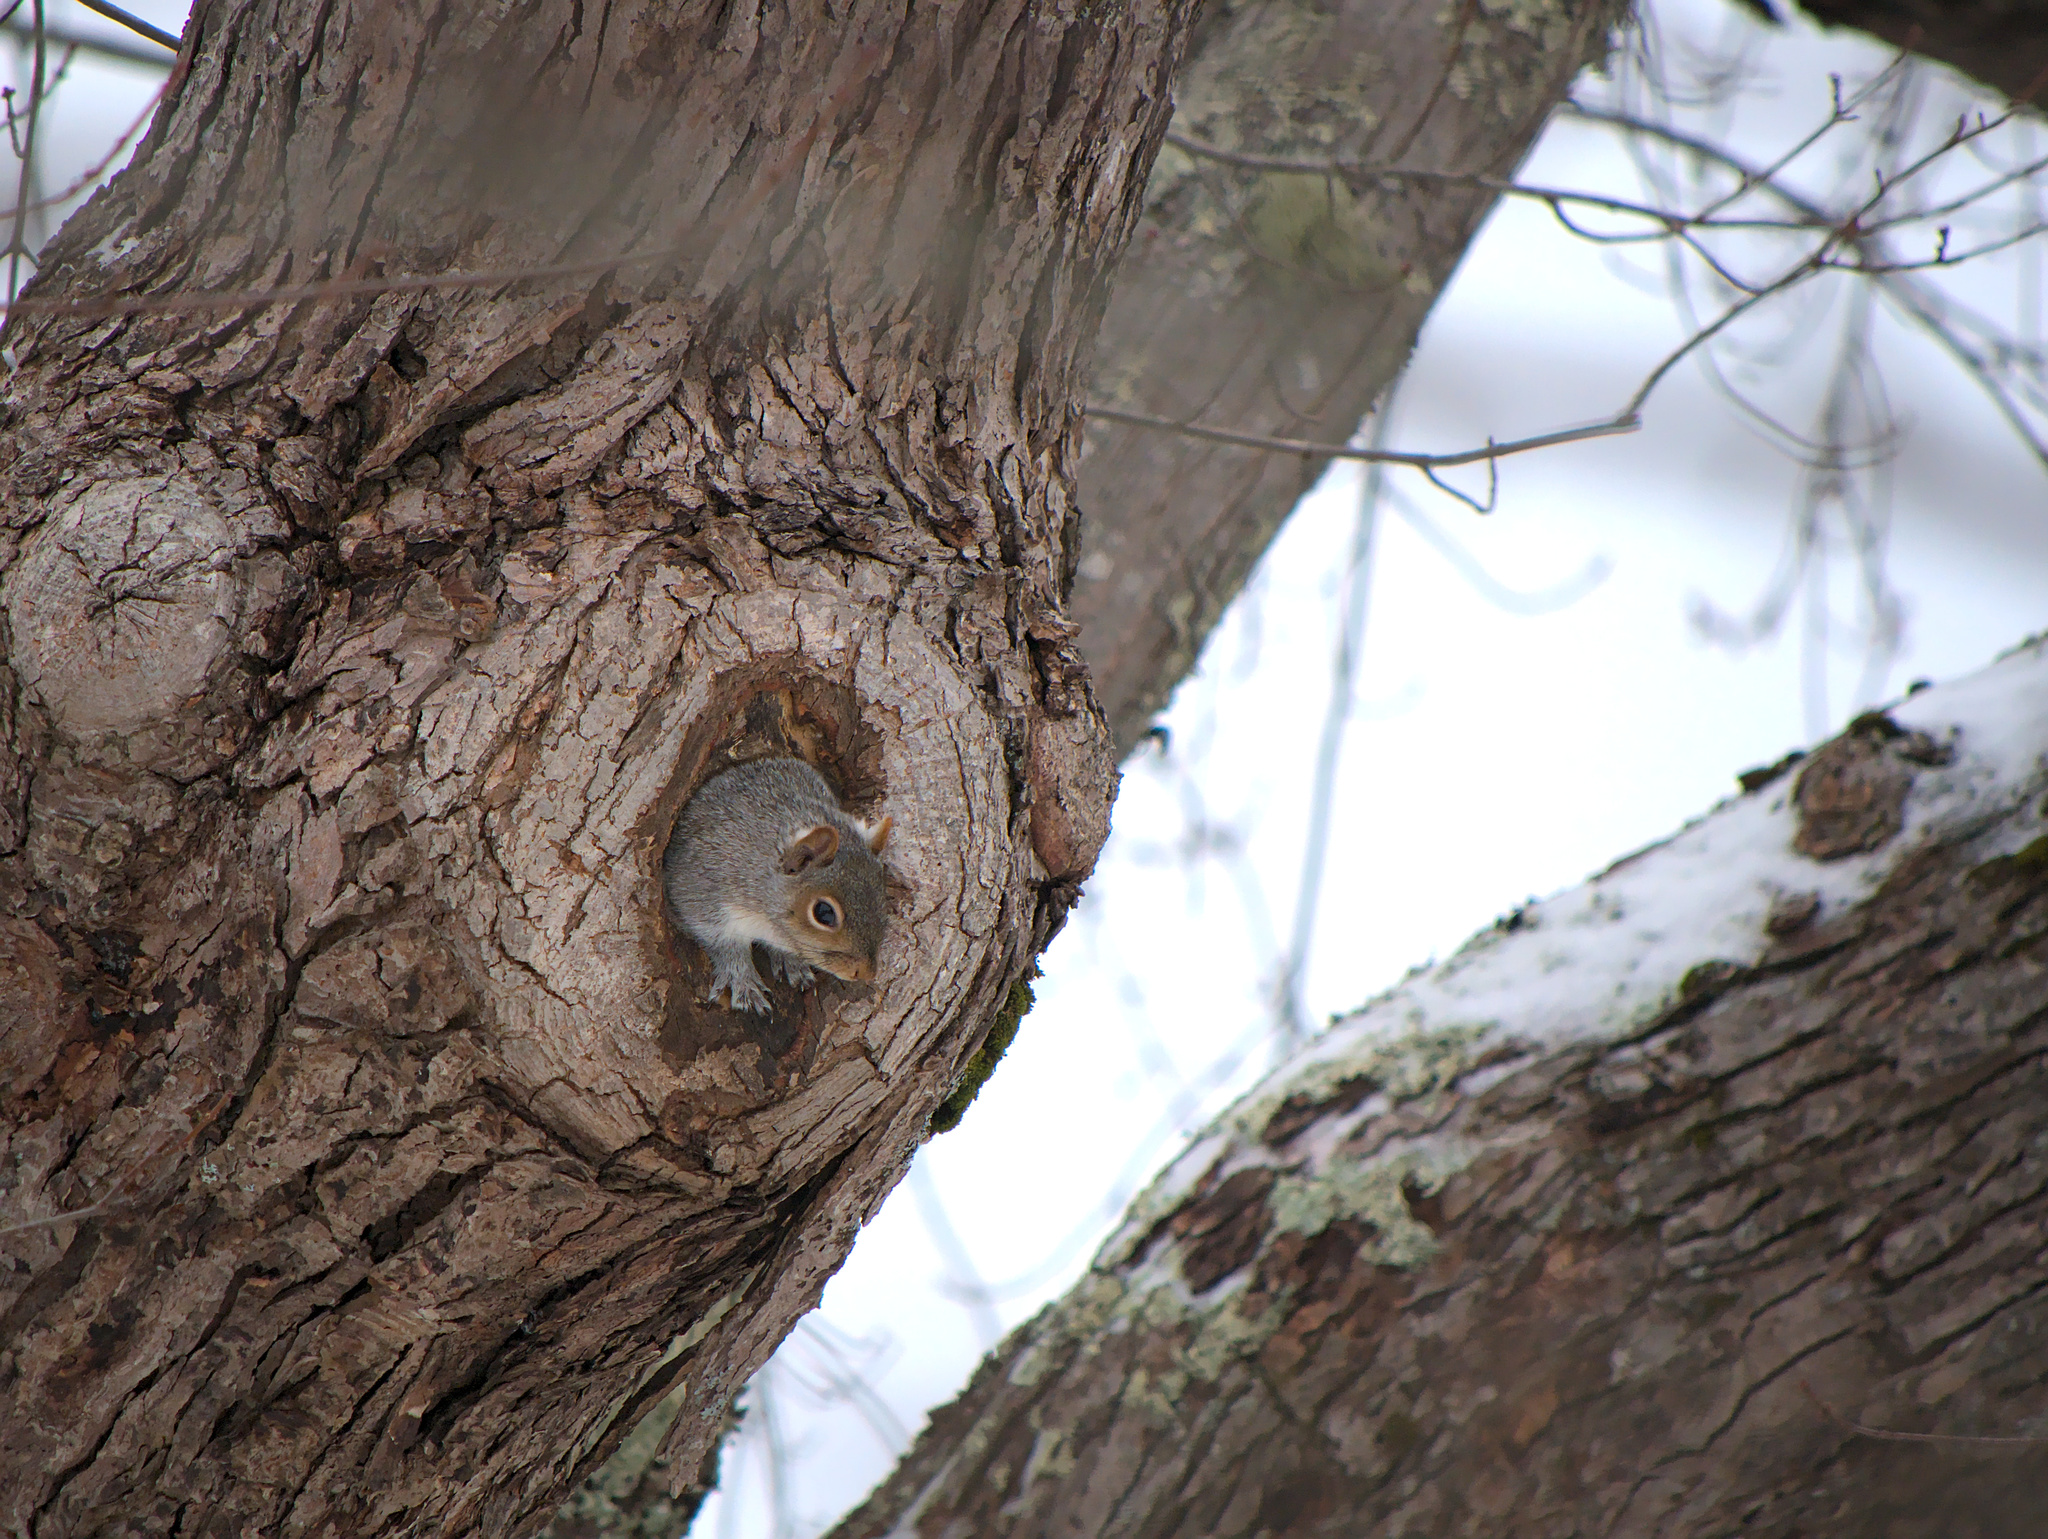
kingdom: Animalia
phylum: Chordata
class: Mammalia
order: Rodentia
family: Sciuridae
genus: Sciurus
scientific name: Sciurus carolinensis
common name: Eastern gray squirrel
